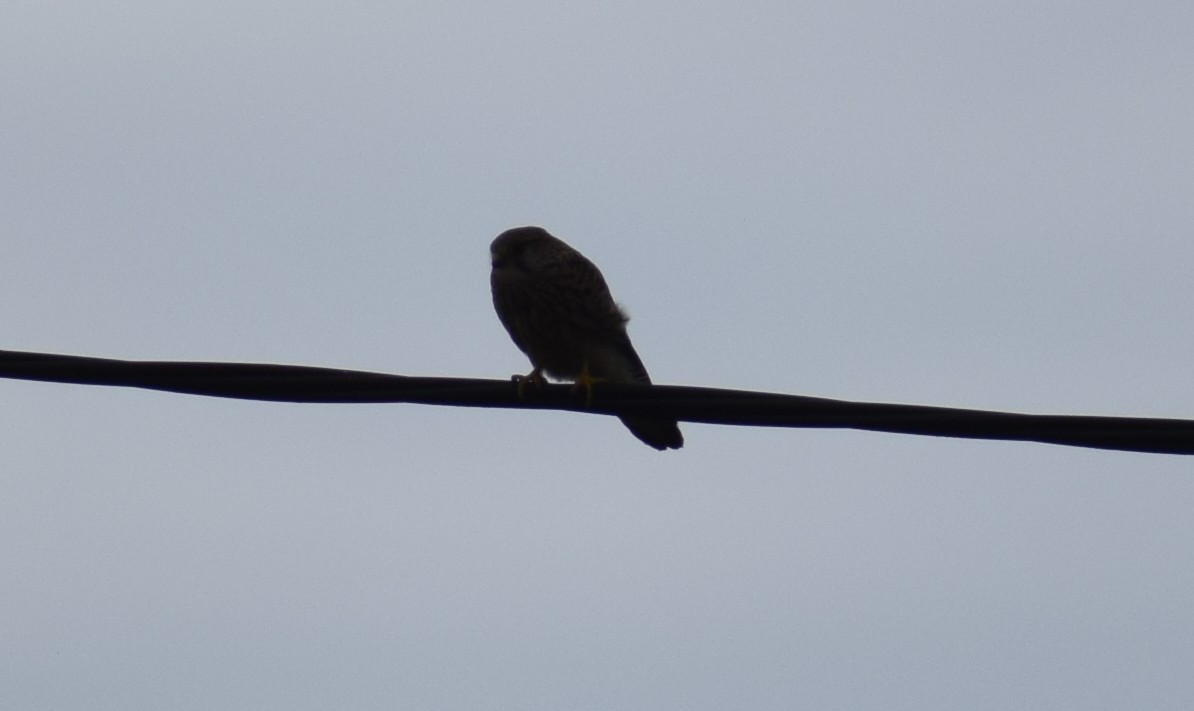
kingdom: Animalia
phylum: Chordata
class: Aves
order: Falconiformes
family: Falconidae
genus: Falco
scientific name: Falco tinnunculus
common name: Common kestrel
